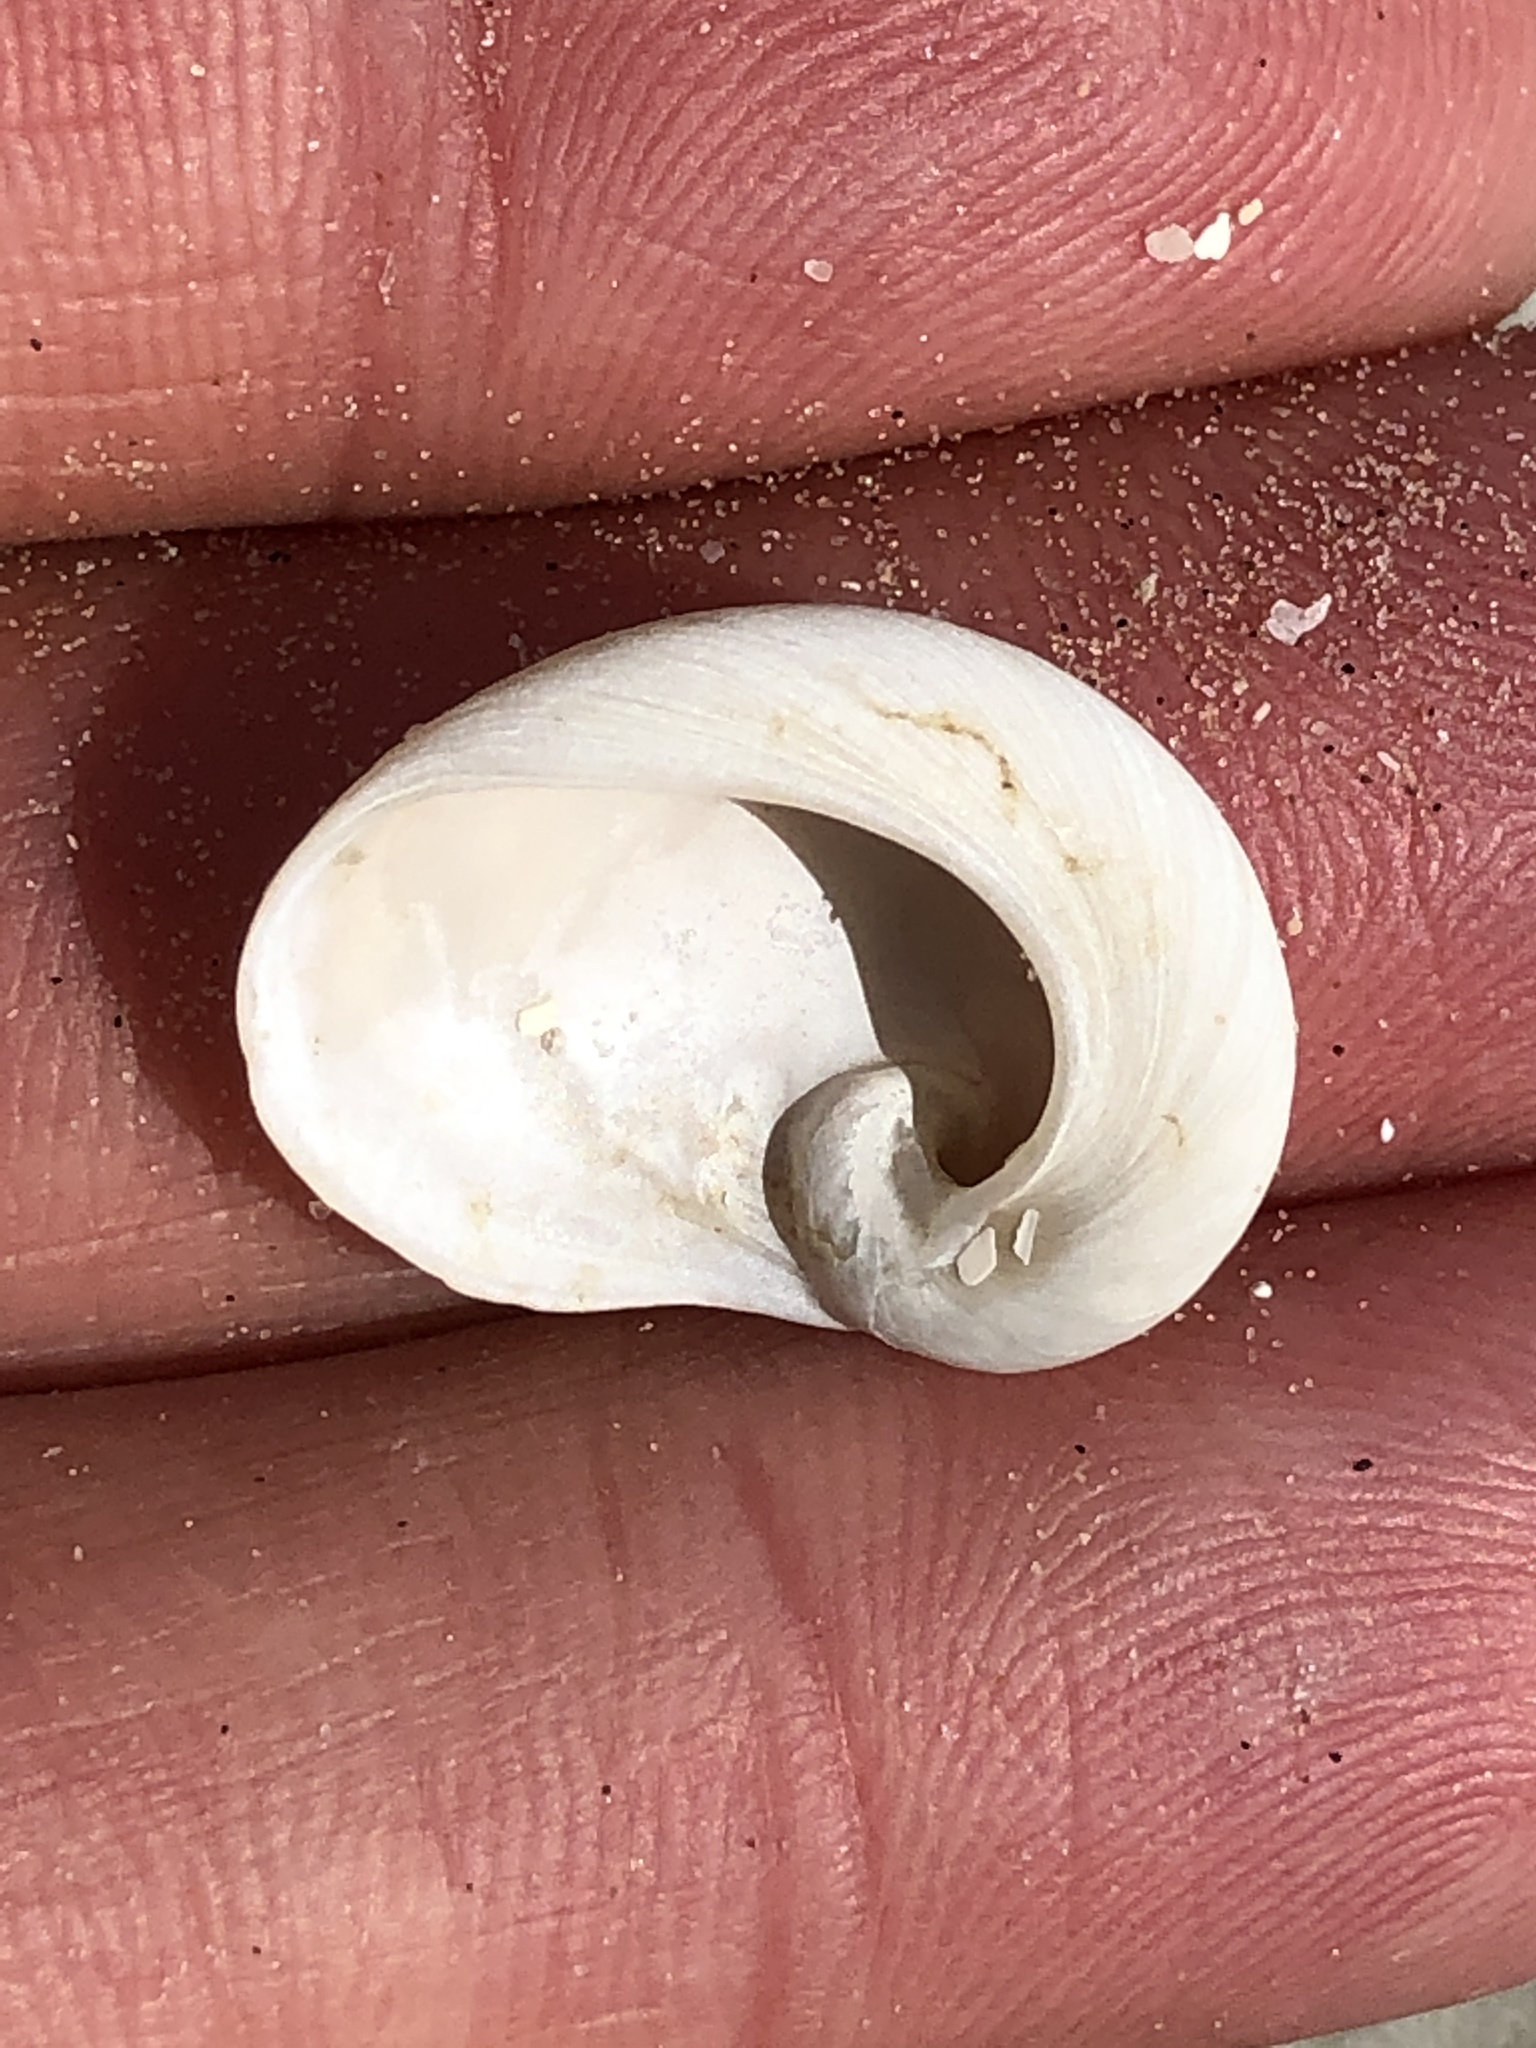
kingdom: Animalia
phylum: Mollusca
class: Gastropoda
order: Littorinimorpha
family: Naticidae
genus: Sinum
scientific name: Sinum perspectivum
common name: White baby ear
